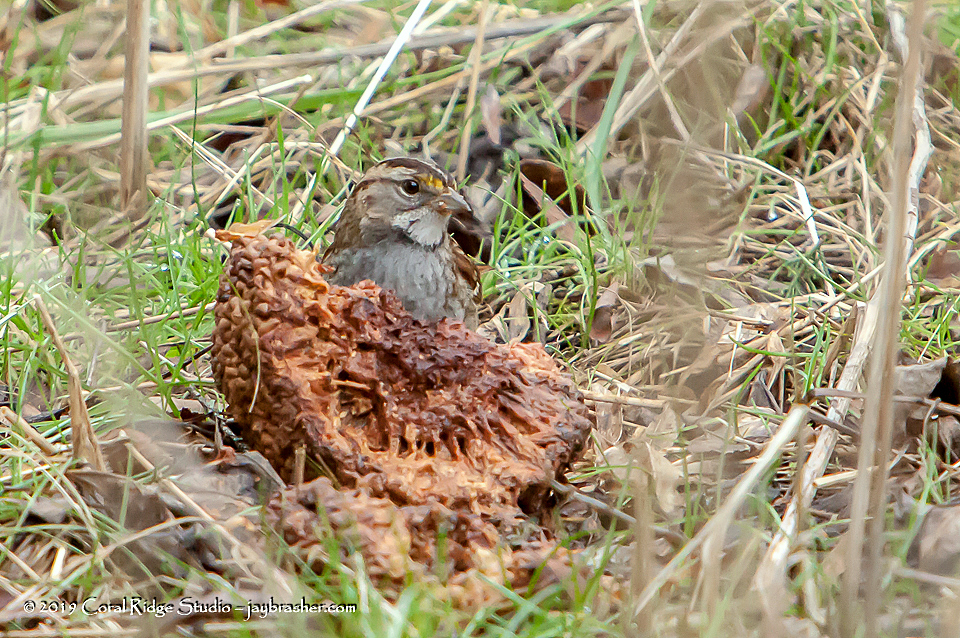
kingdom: Animalia
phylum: Chordata
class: Aves
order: Passeriformes
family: Passerellidae
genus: Zonotrichia
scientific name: Zonotrichia albicollis
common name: White-throated sparrow
